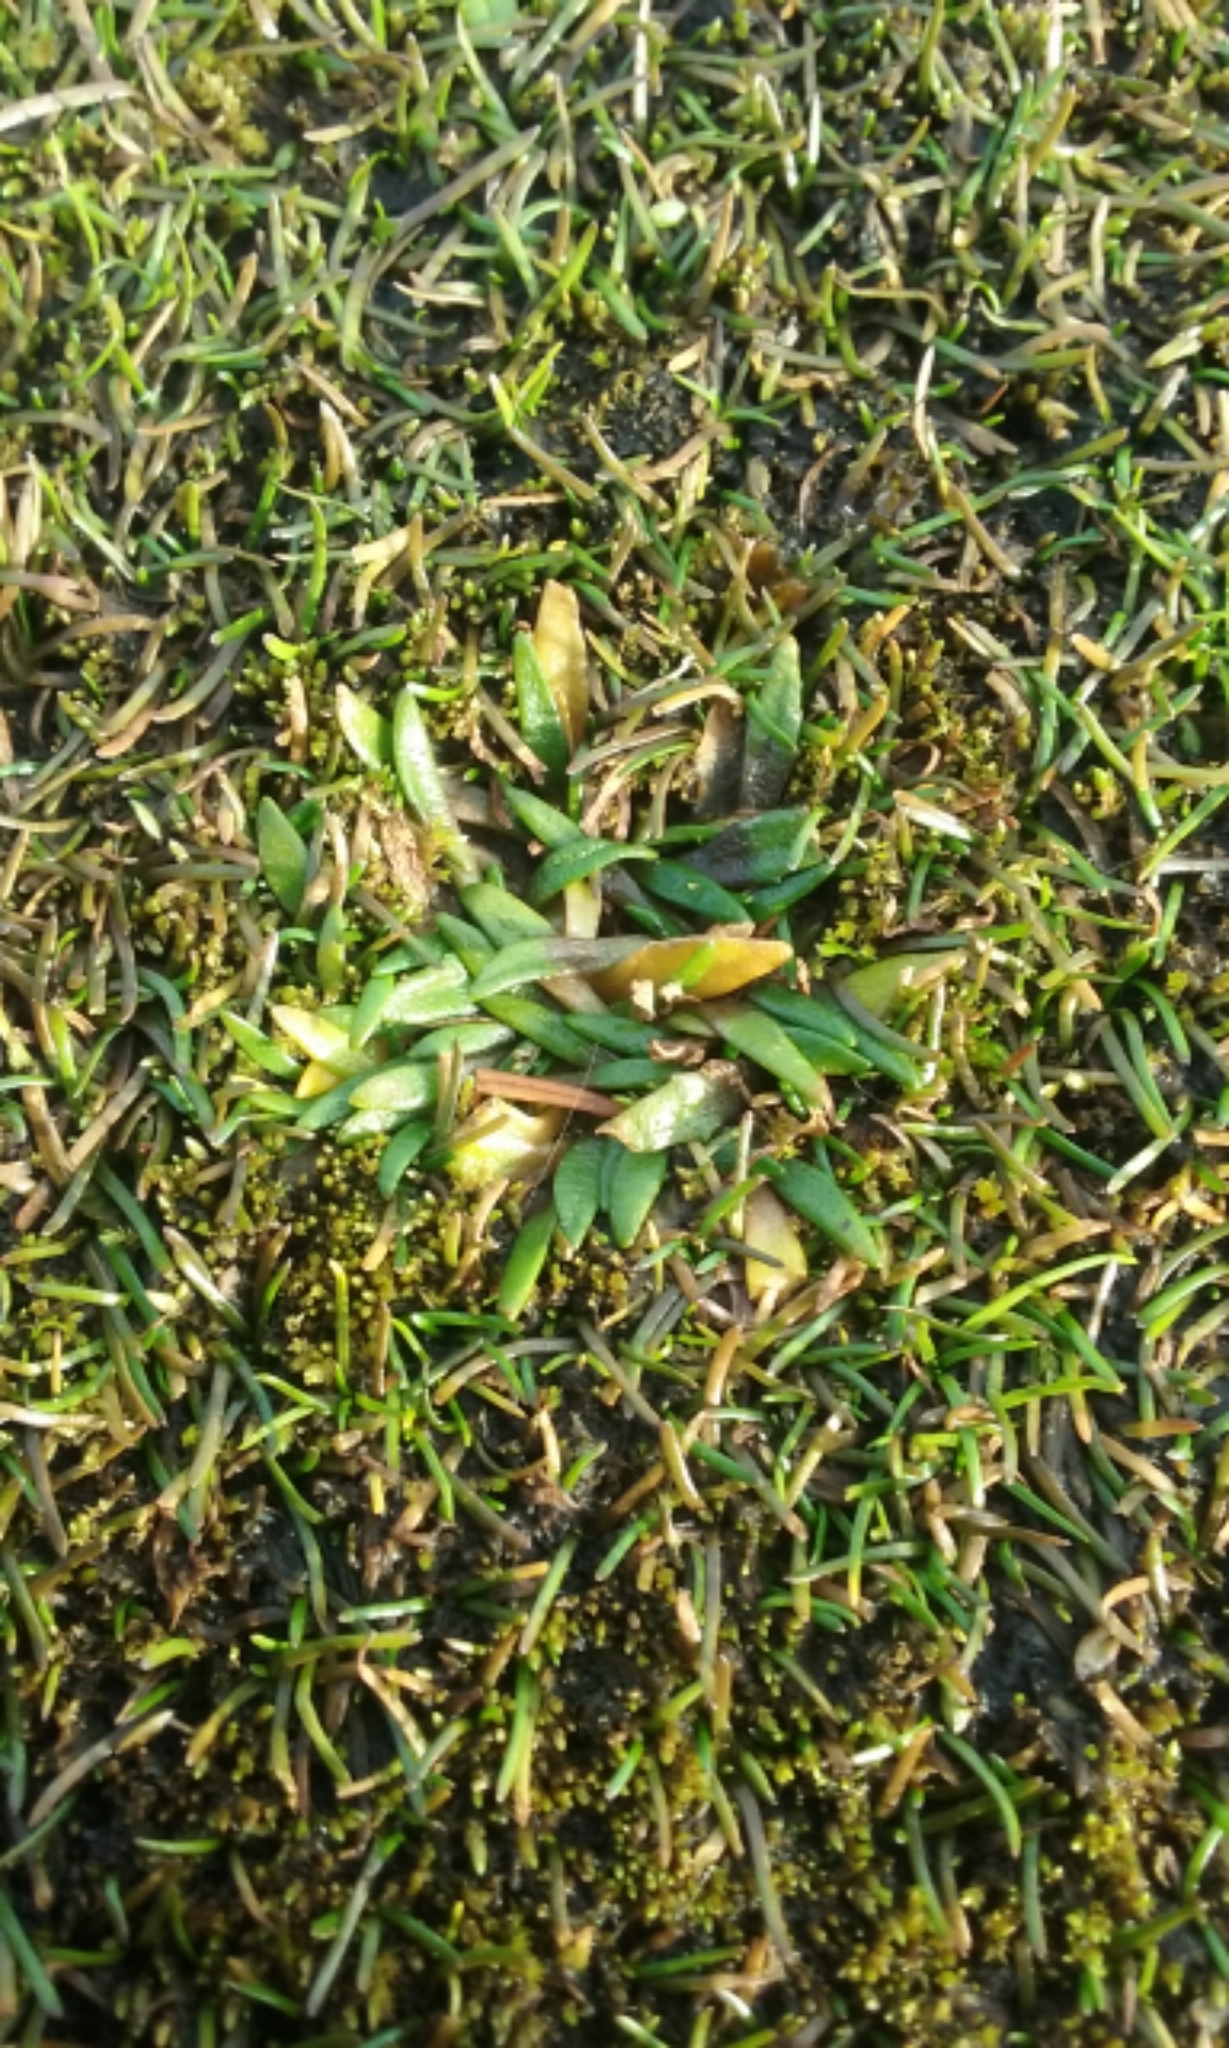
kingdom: Plantae
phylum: Tracheophyta
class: Magnoliopsida
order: Lamiales
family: Plantaginaceae
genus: Plantago
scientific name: Plantago triandra
